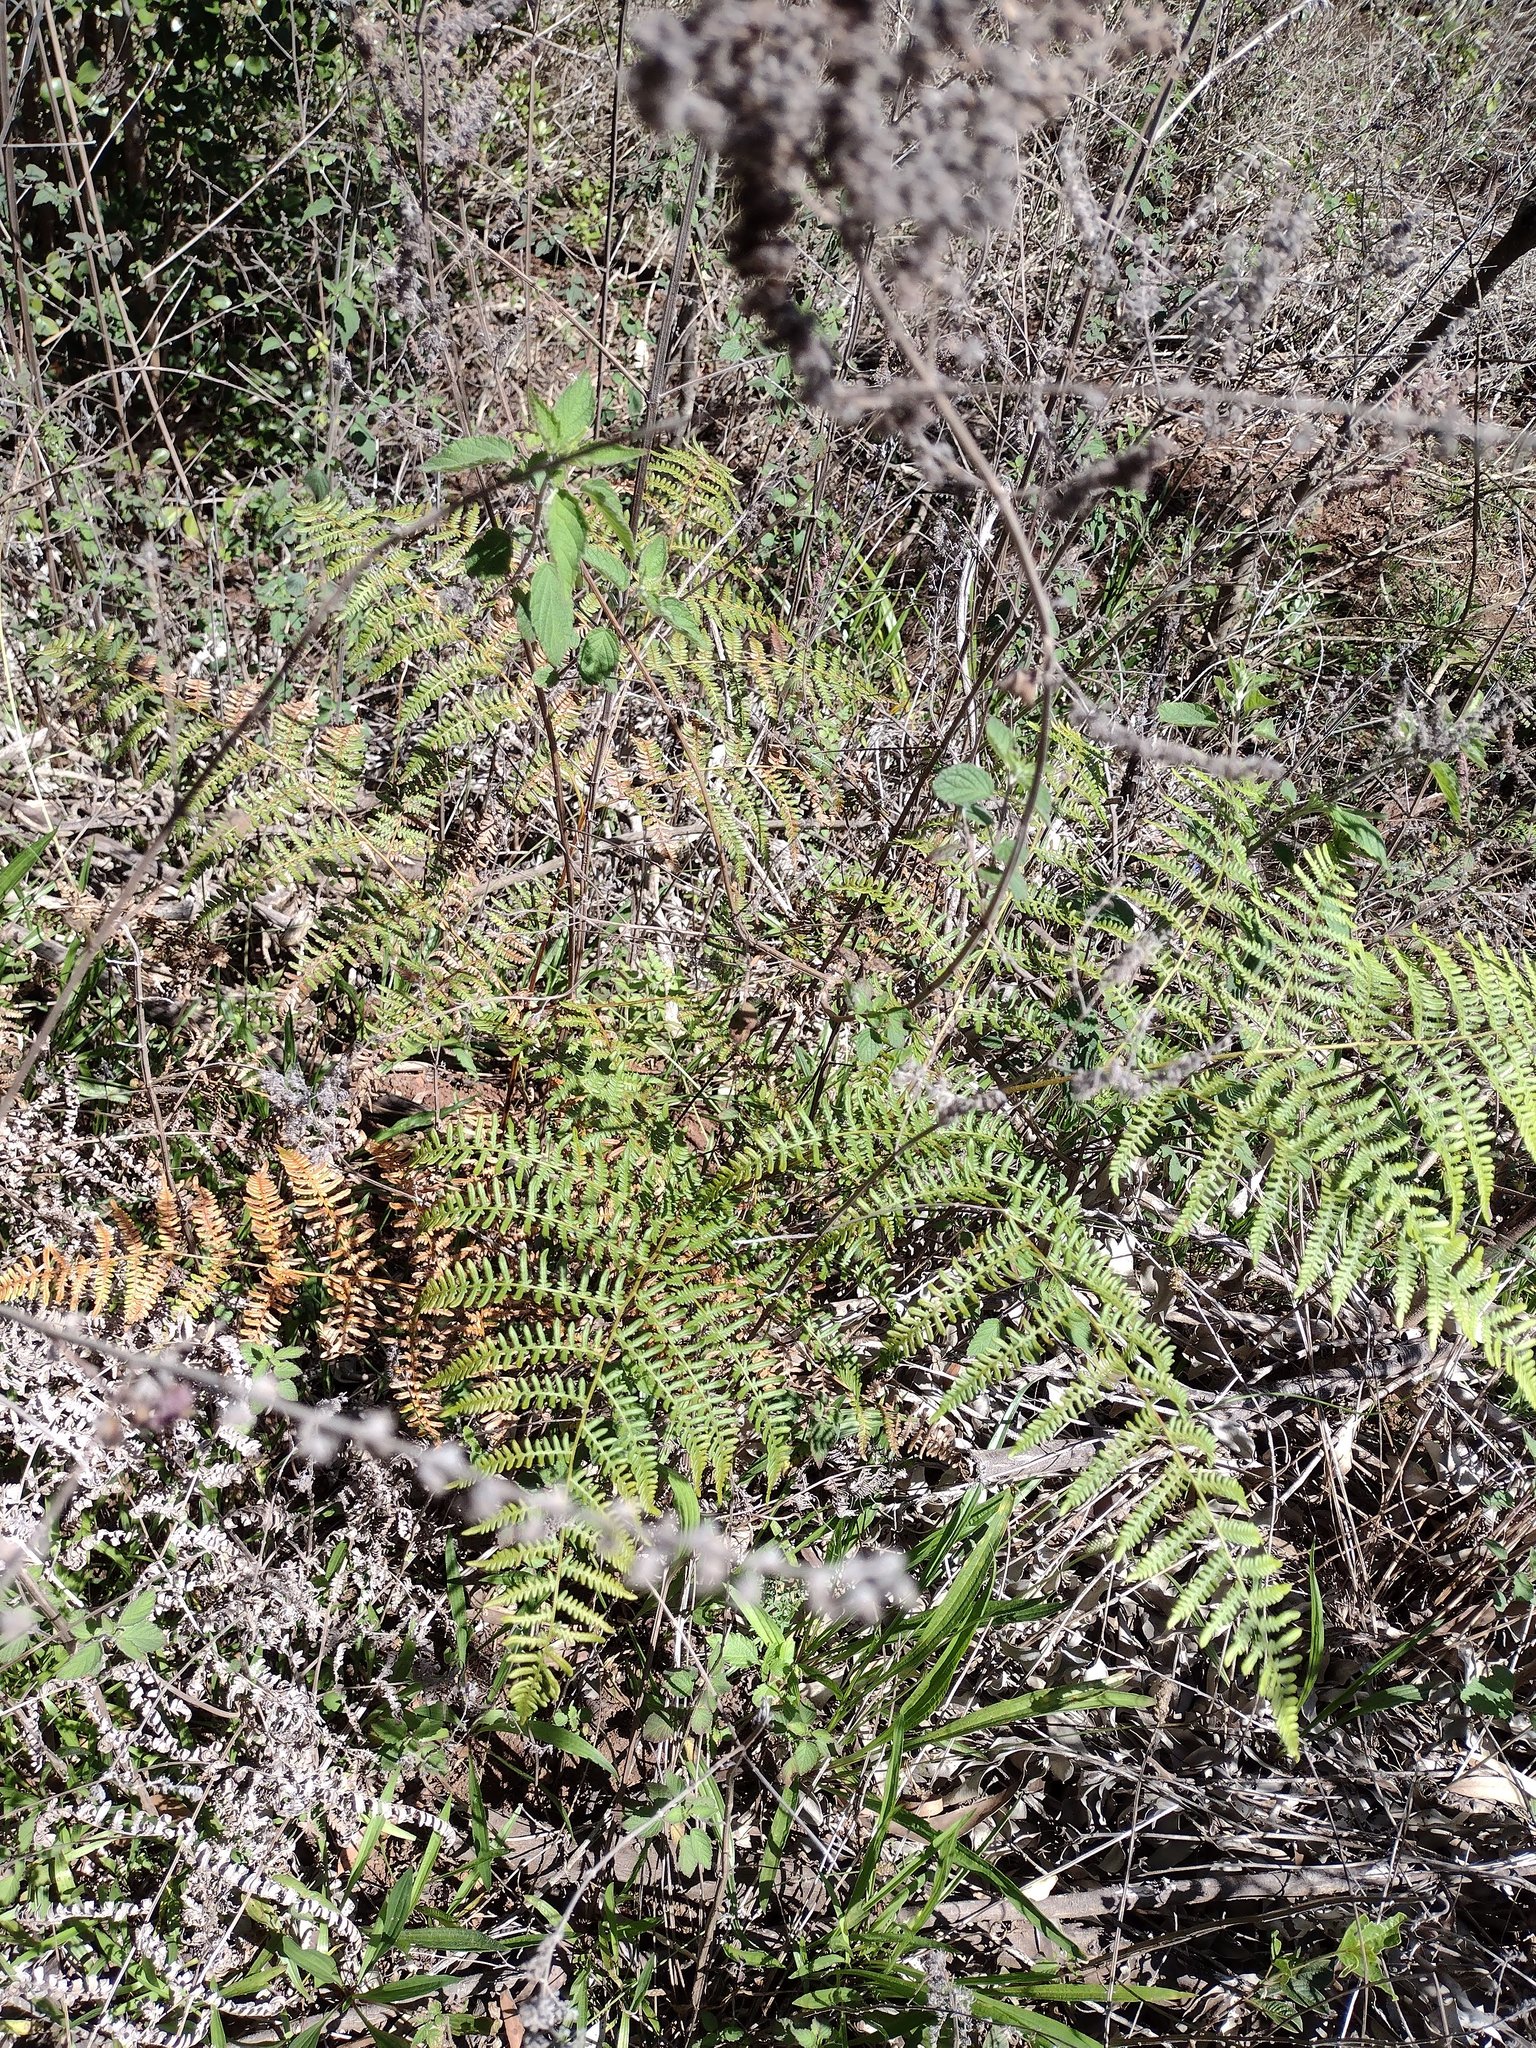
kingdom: Plantae
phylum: Tracheophyta
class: Polypodiopsida
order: Polypodiales
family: Dennstaedtiaceae
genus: Pteridium
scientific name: Pteridium aquilinum
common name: Bracken
